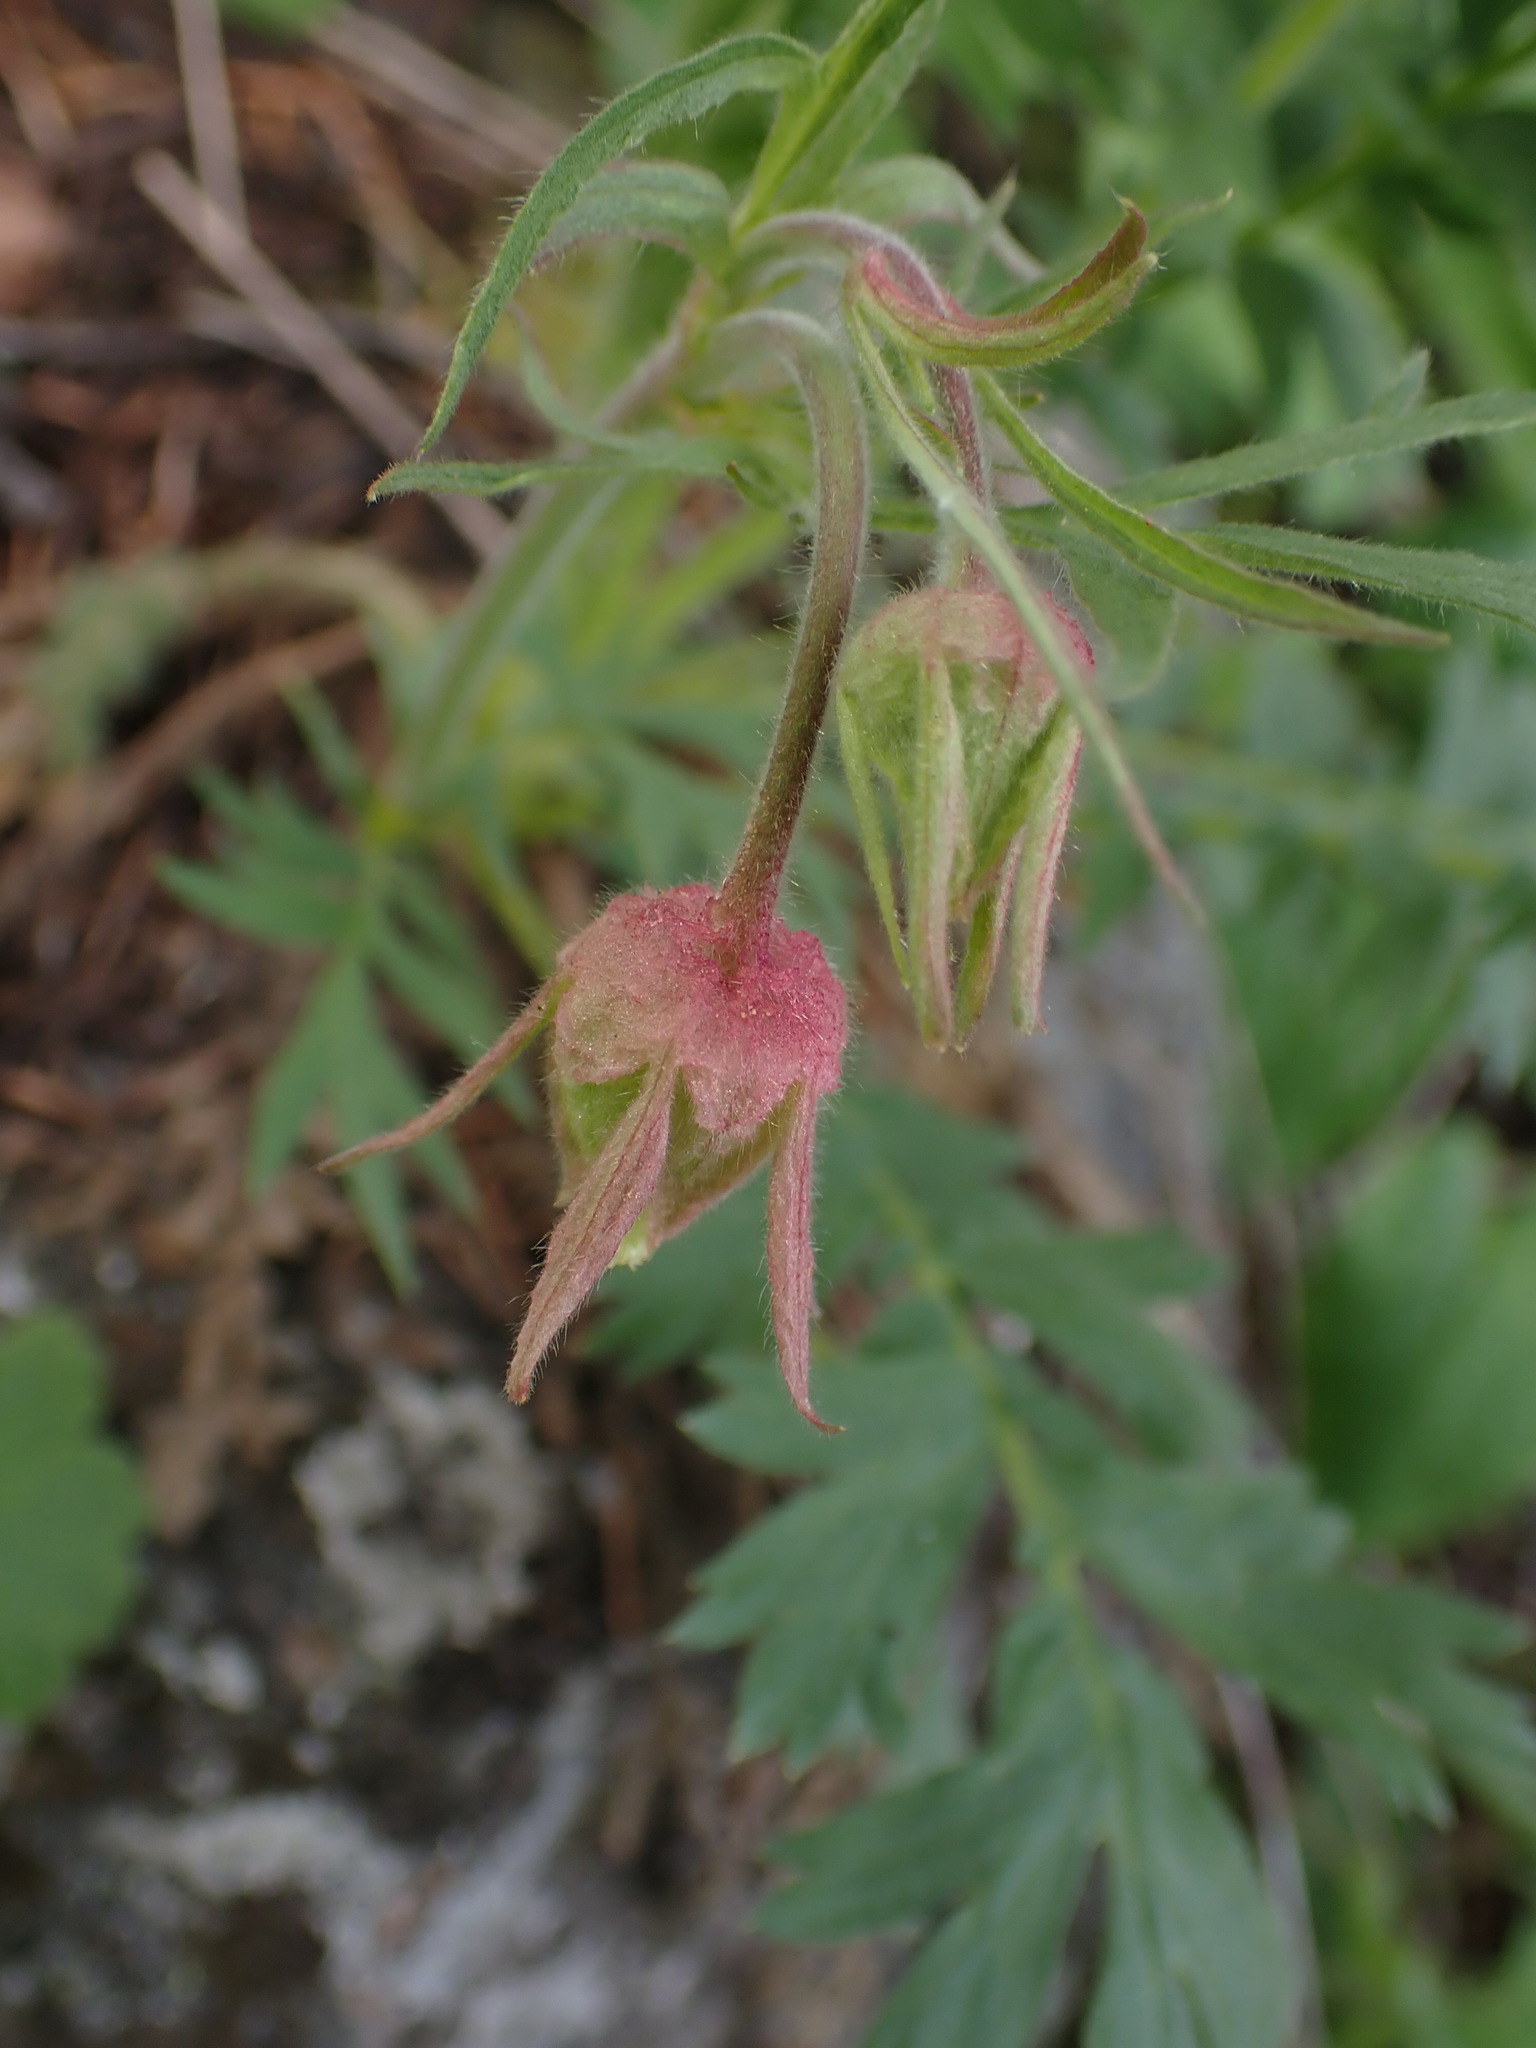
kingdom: Plantae
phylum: Tracheophyta
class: Magnoliopsida
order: Rosales
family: Rosaceae
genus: Geum
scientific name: Geum triflorum
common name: Old man's whiskers
